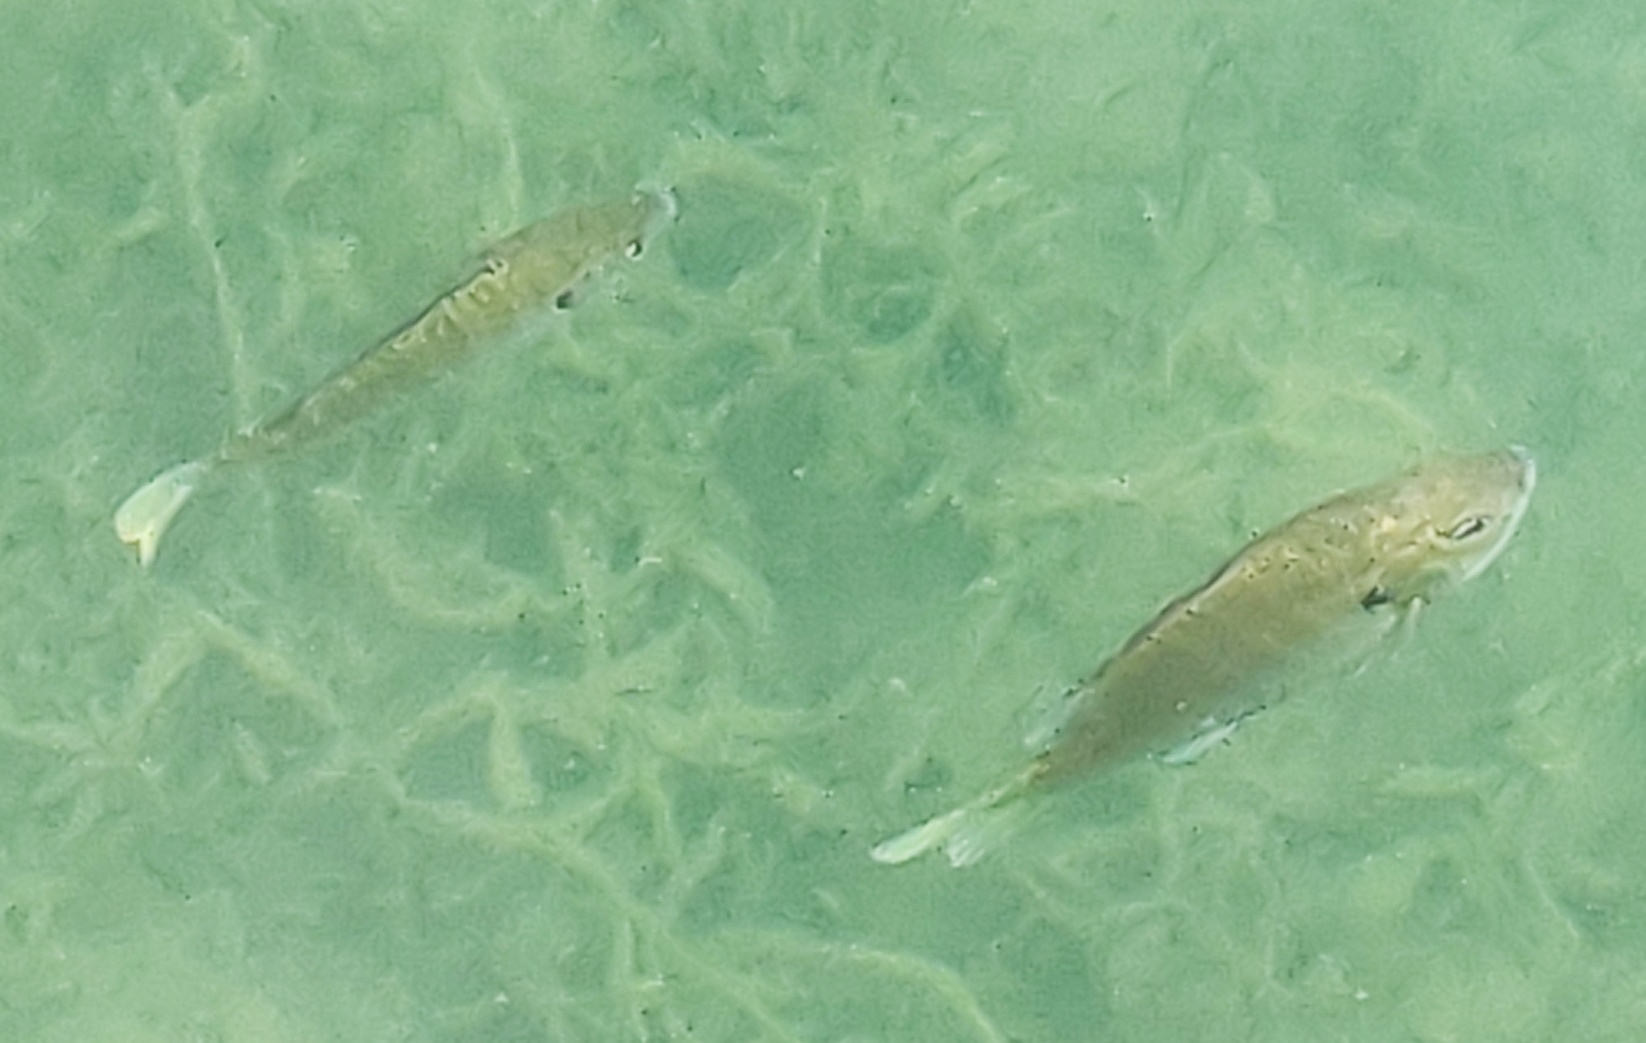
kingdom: Animalia
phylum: Chordata
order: Perciformes
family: Centrarchidae
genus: Lepomis
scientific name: Lepomis macrochirus
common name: Bluegill
